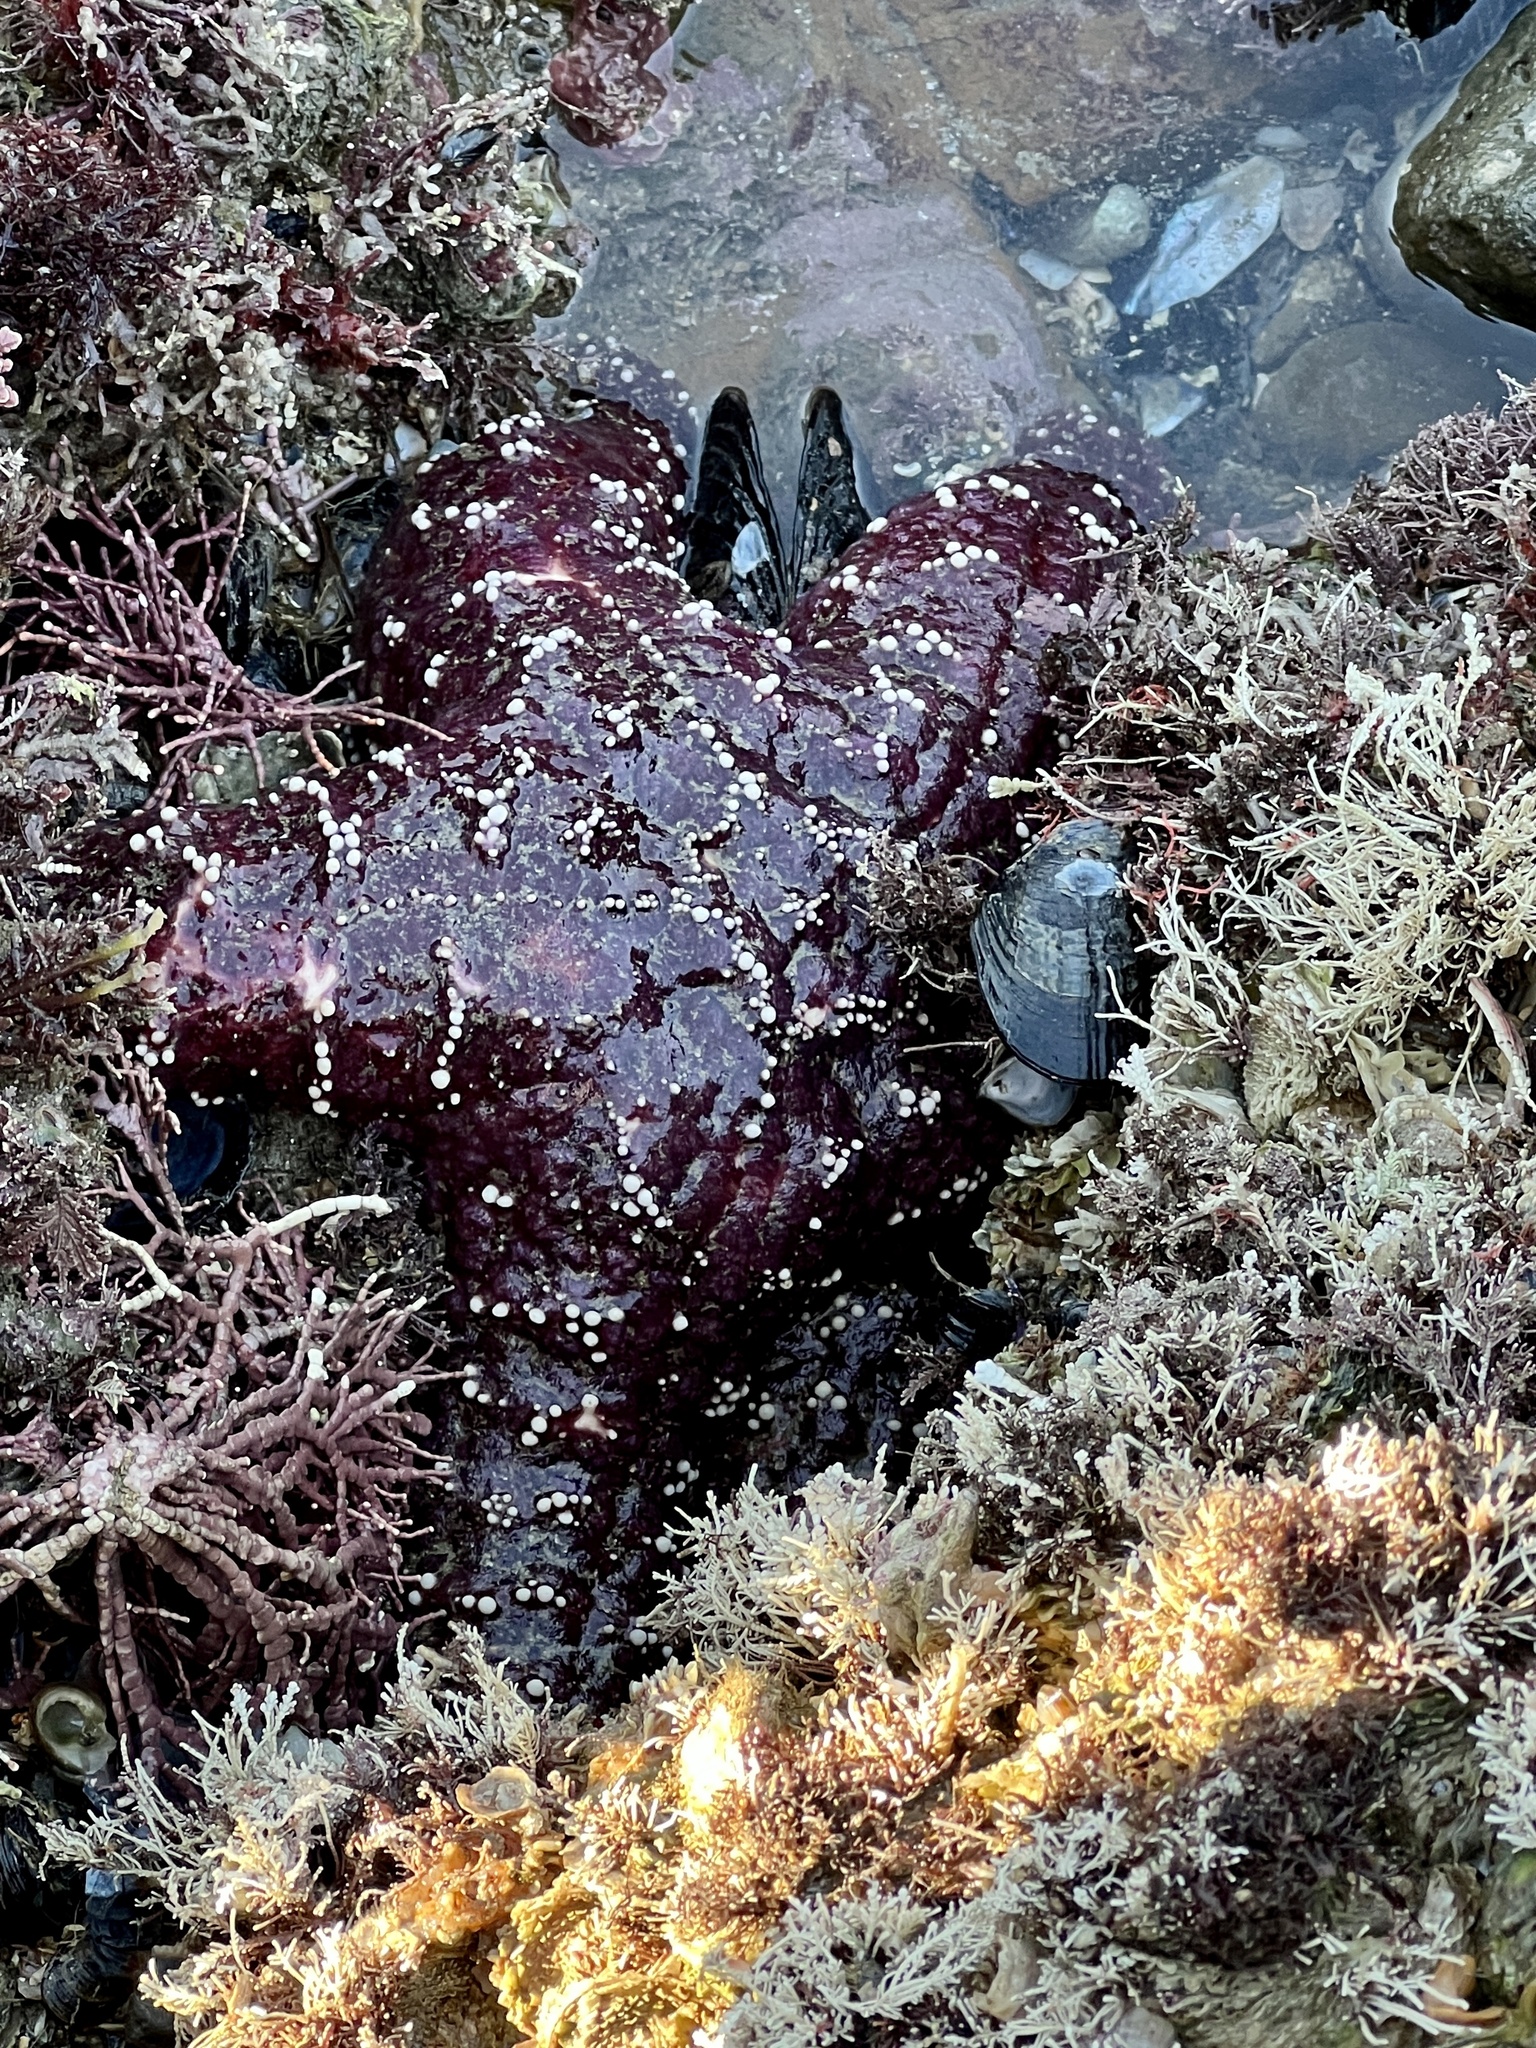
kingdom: Animalia
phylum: Echinodermata
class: Asteroidea
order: Forcipulatida
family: Asteriidae
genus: Pisaster
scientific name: Pisaster ochraceus
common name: Ochre stars
